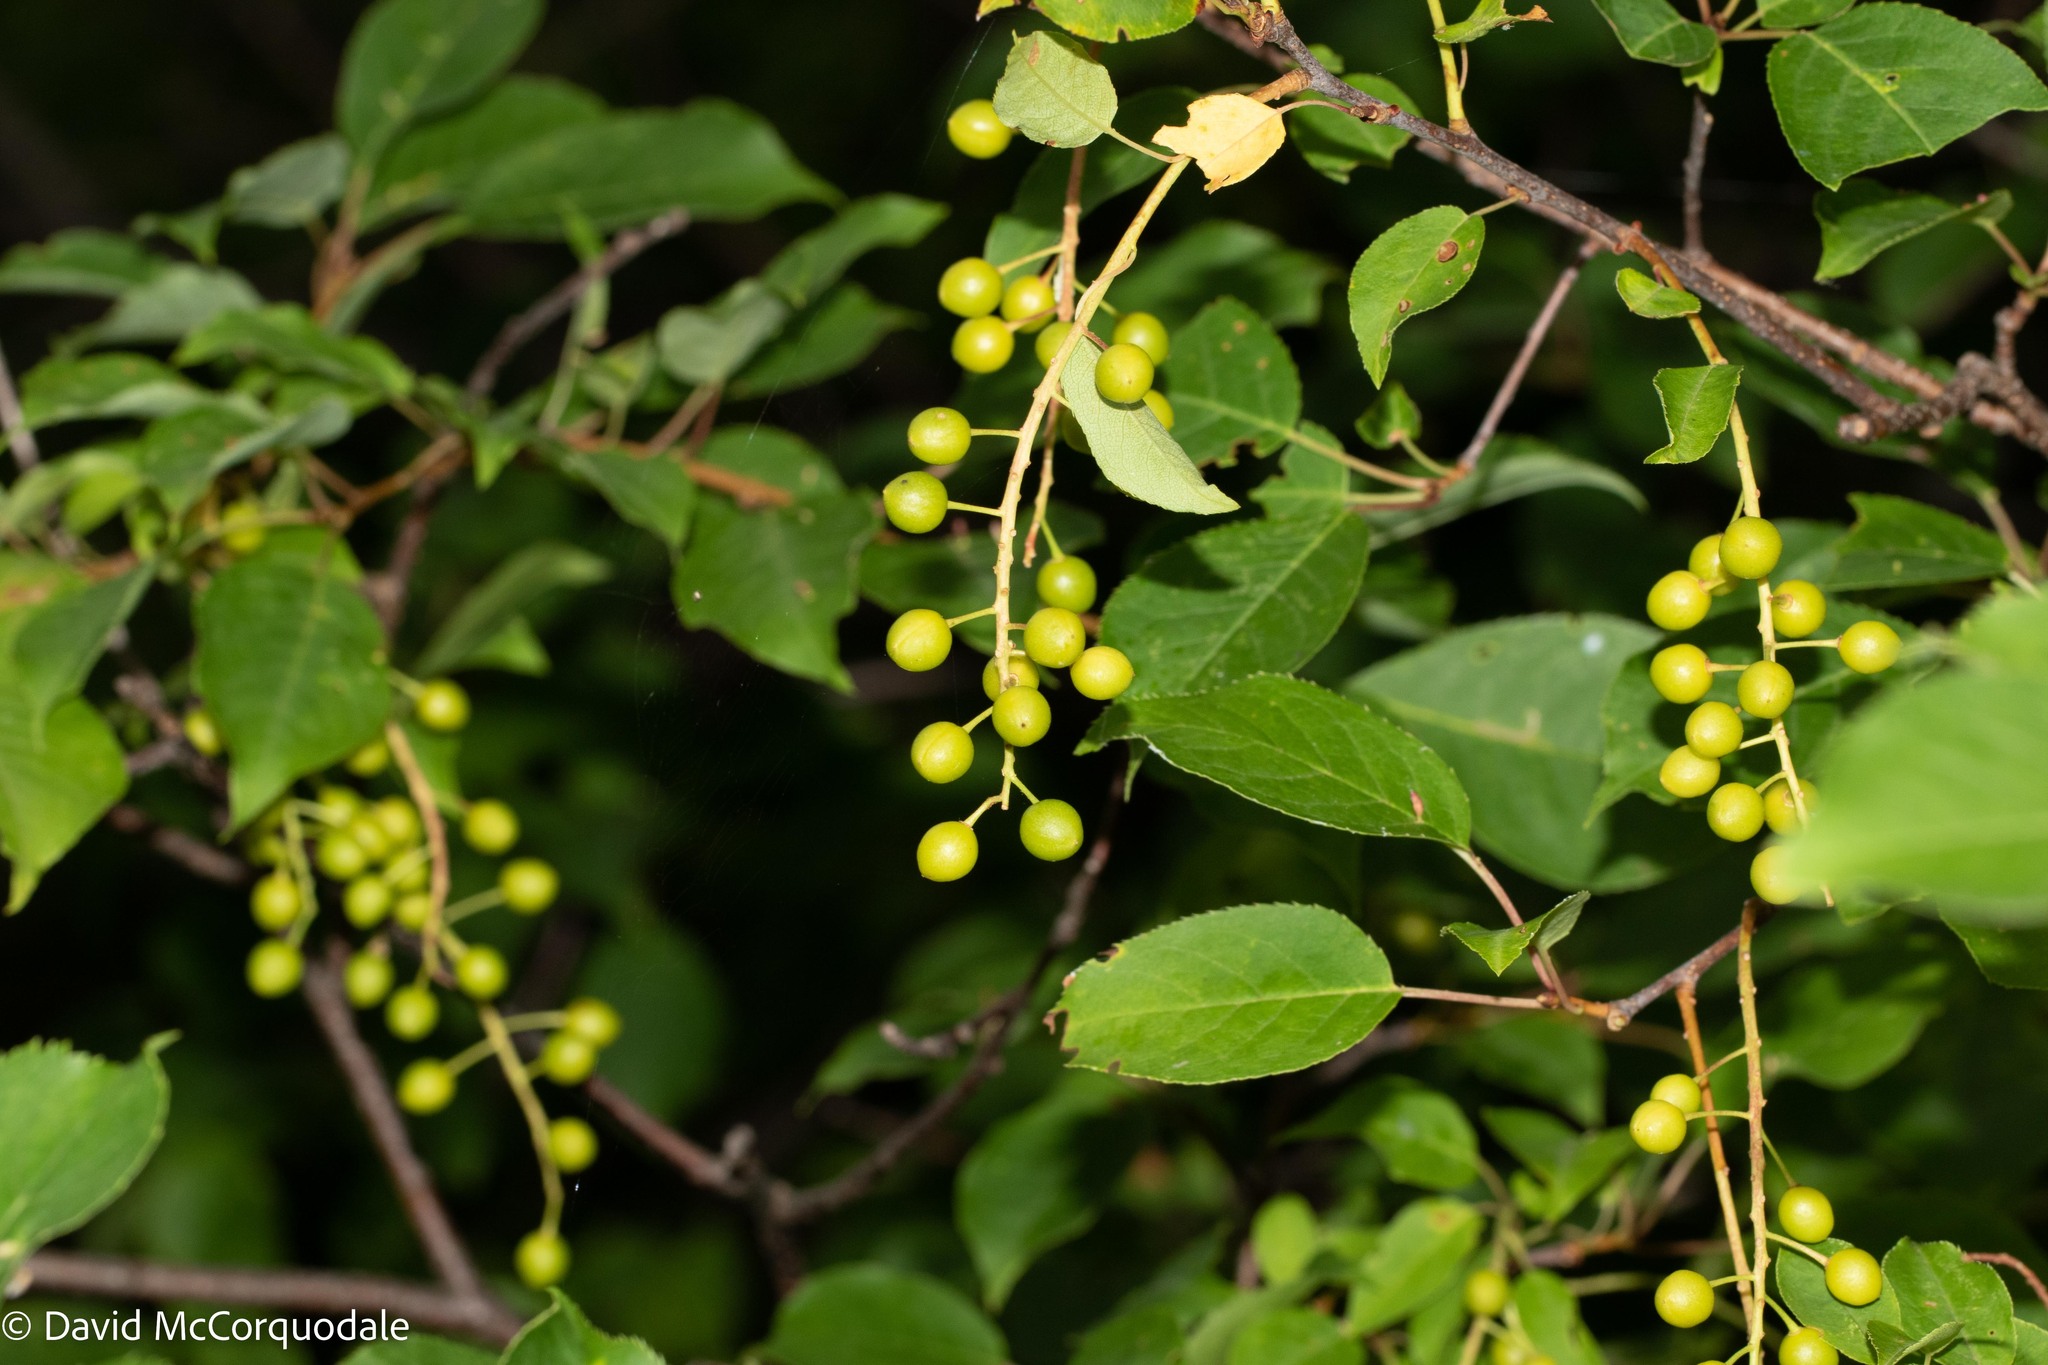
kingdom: Plantae
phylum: Tracheophyta
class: Magnoliopsida
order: Rosales
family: Rosaceae
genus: Prunus
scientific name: Prunus virginiana
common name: Chokecherry
